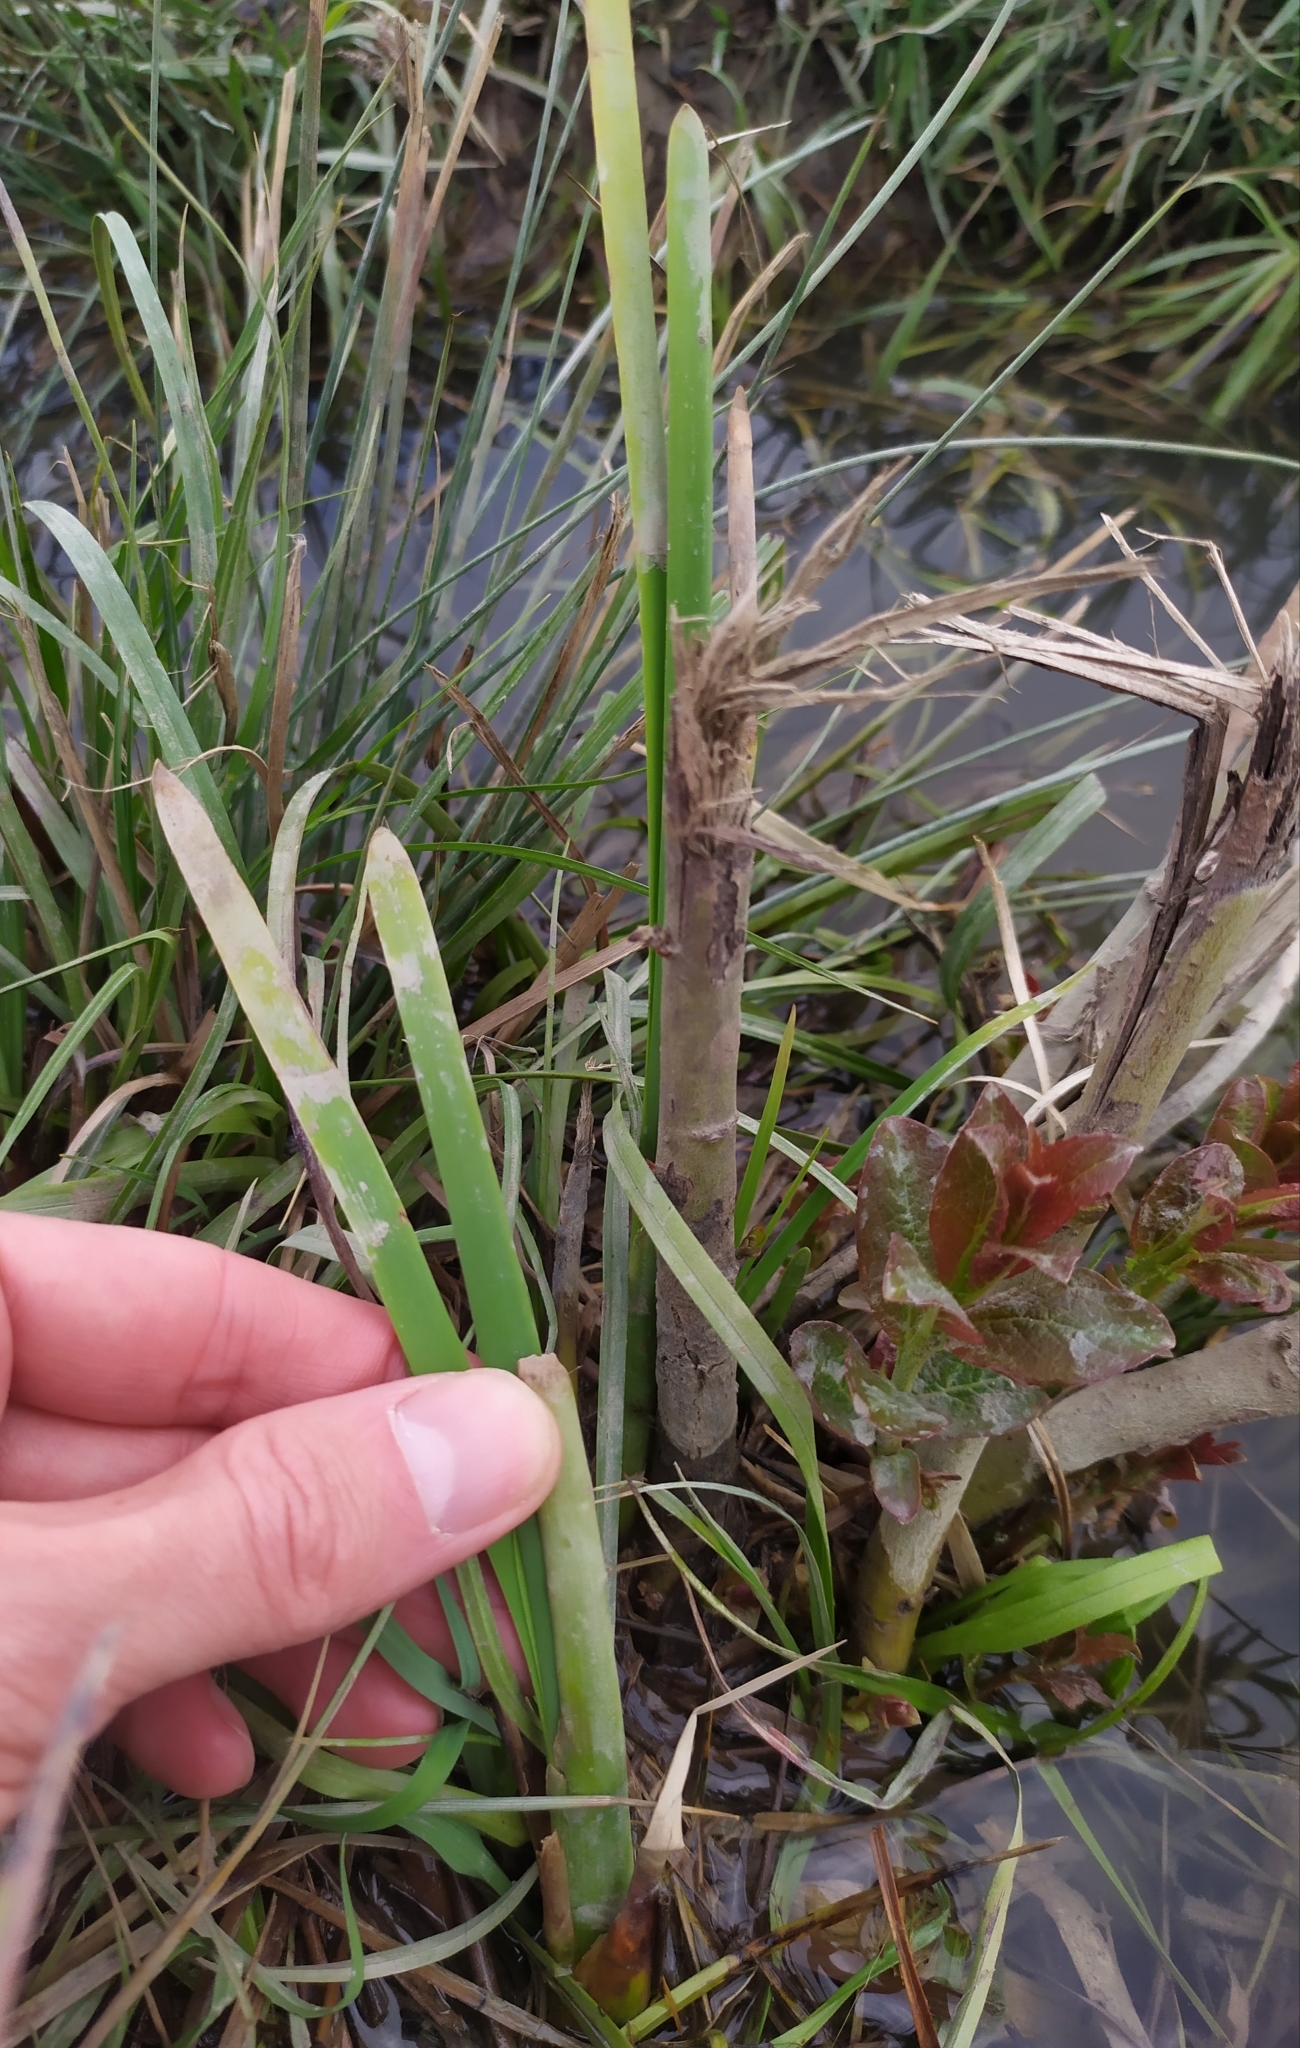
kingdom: Plantae
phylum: Tracheophyta
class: Liliopsida
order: Poales
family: Typhaceae
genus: Typha
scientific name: Typha shuttleworthii
